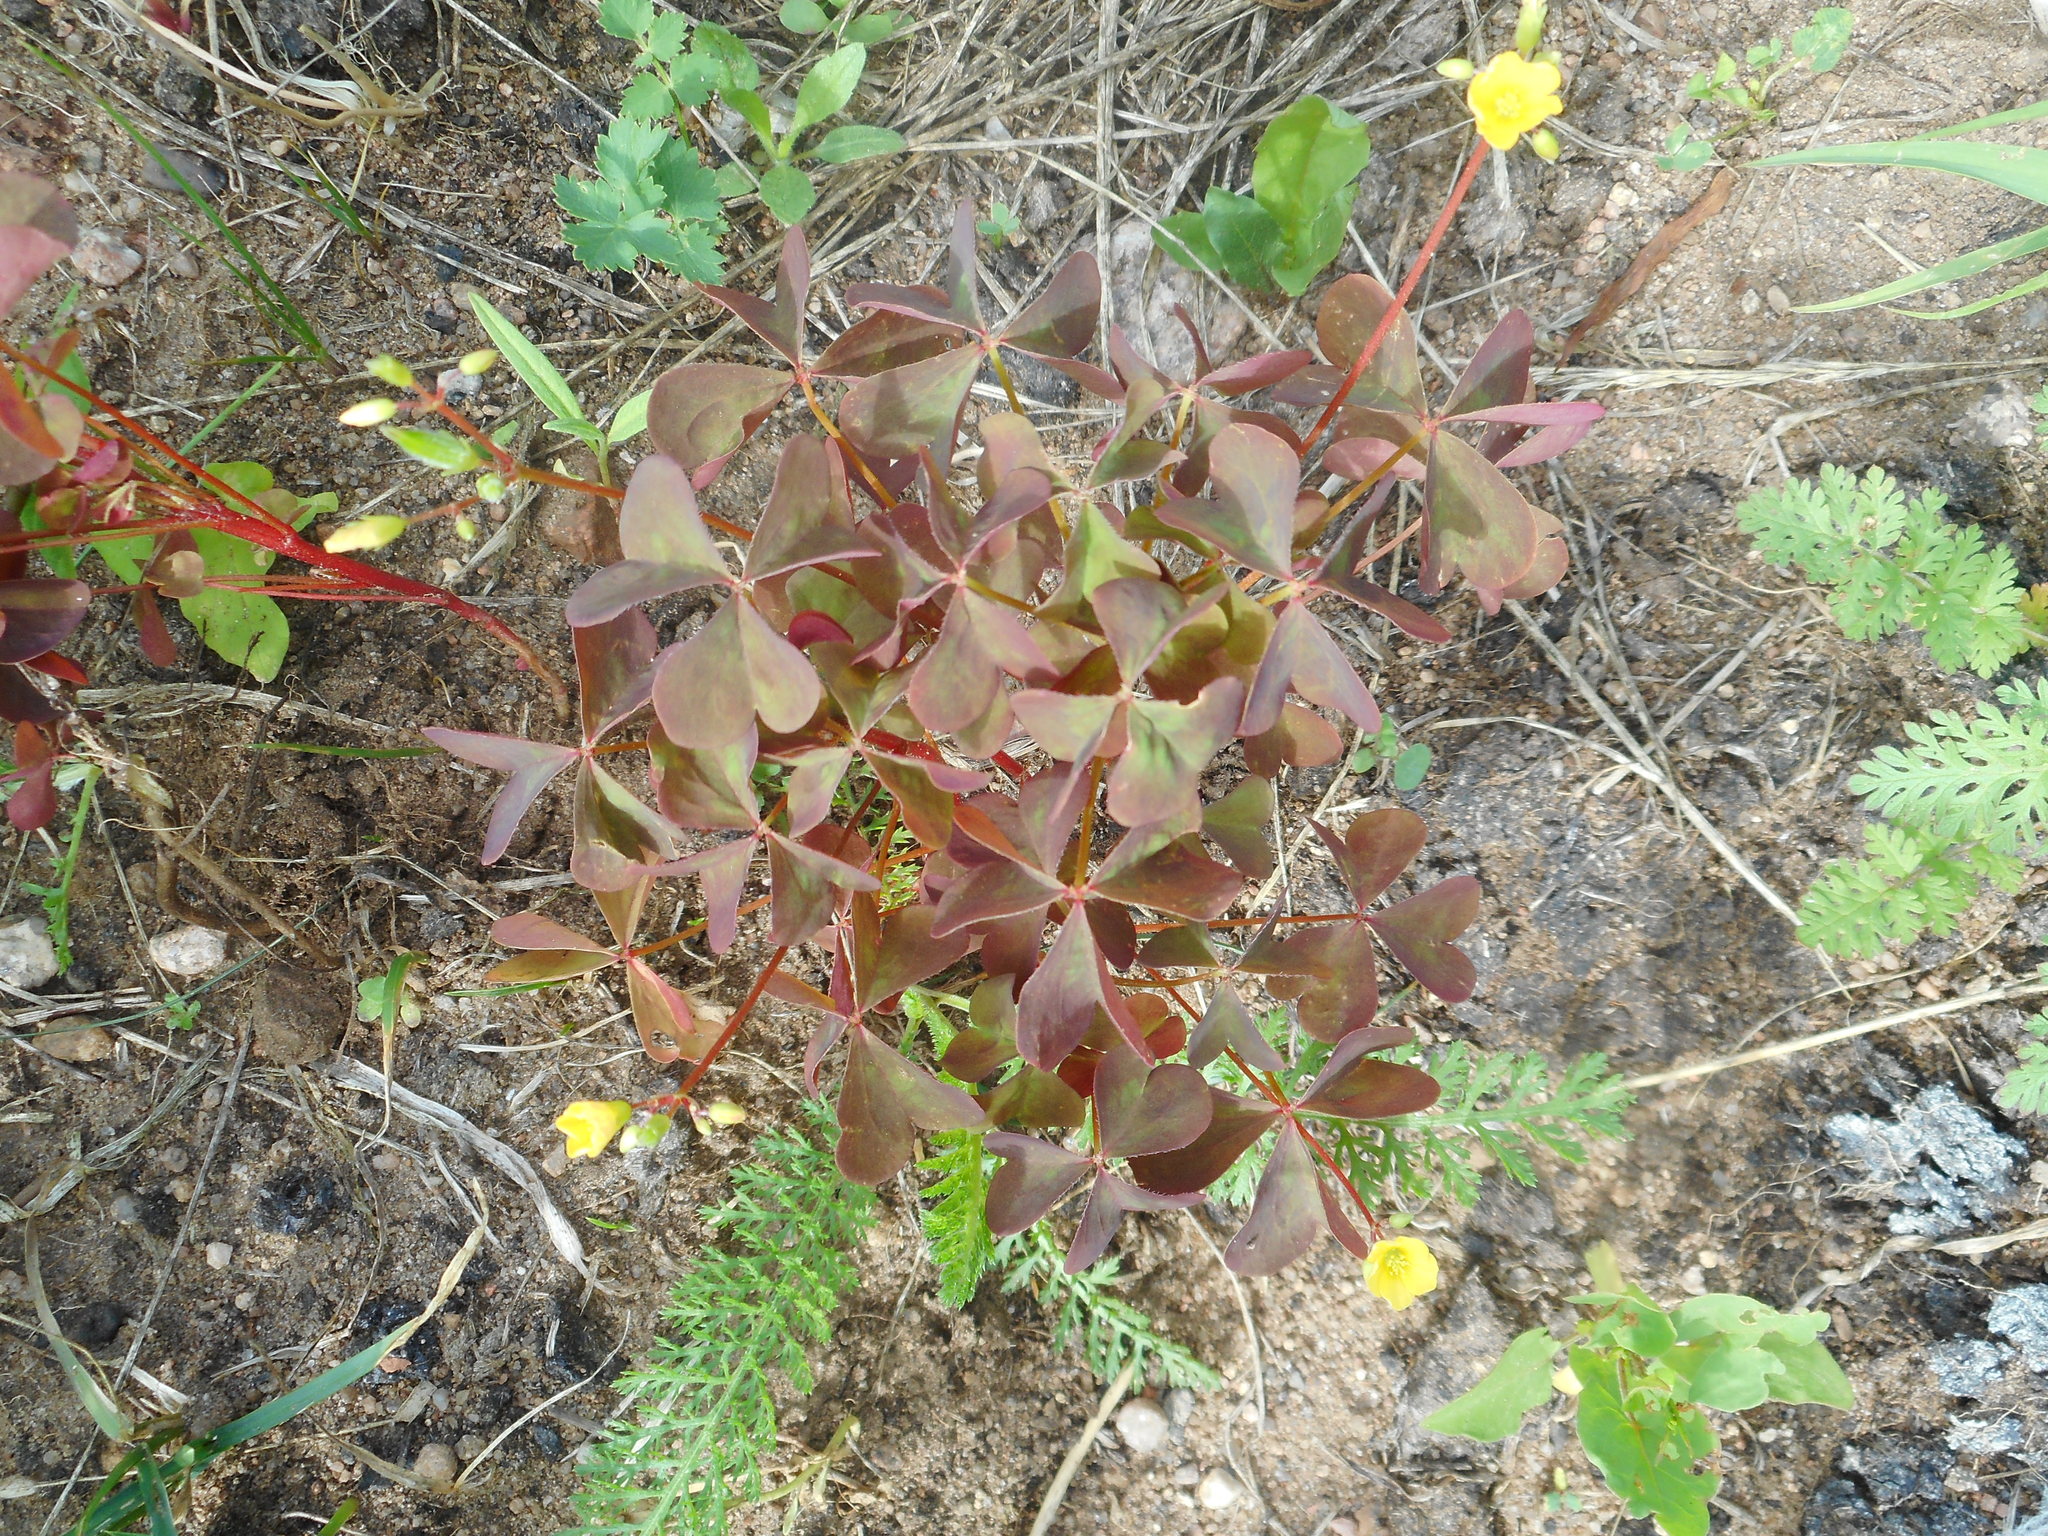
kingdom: Plantae
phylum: Tracheophyta
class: Magnoliopsida
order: Oxalidales
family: Oxalidaceae
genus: Oxalis
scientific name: Oxalis stricta
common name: Upright yellow-sorrel
